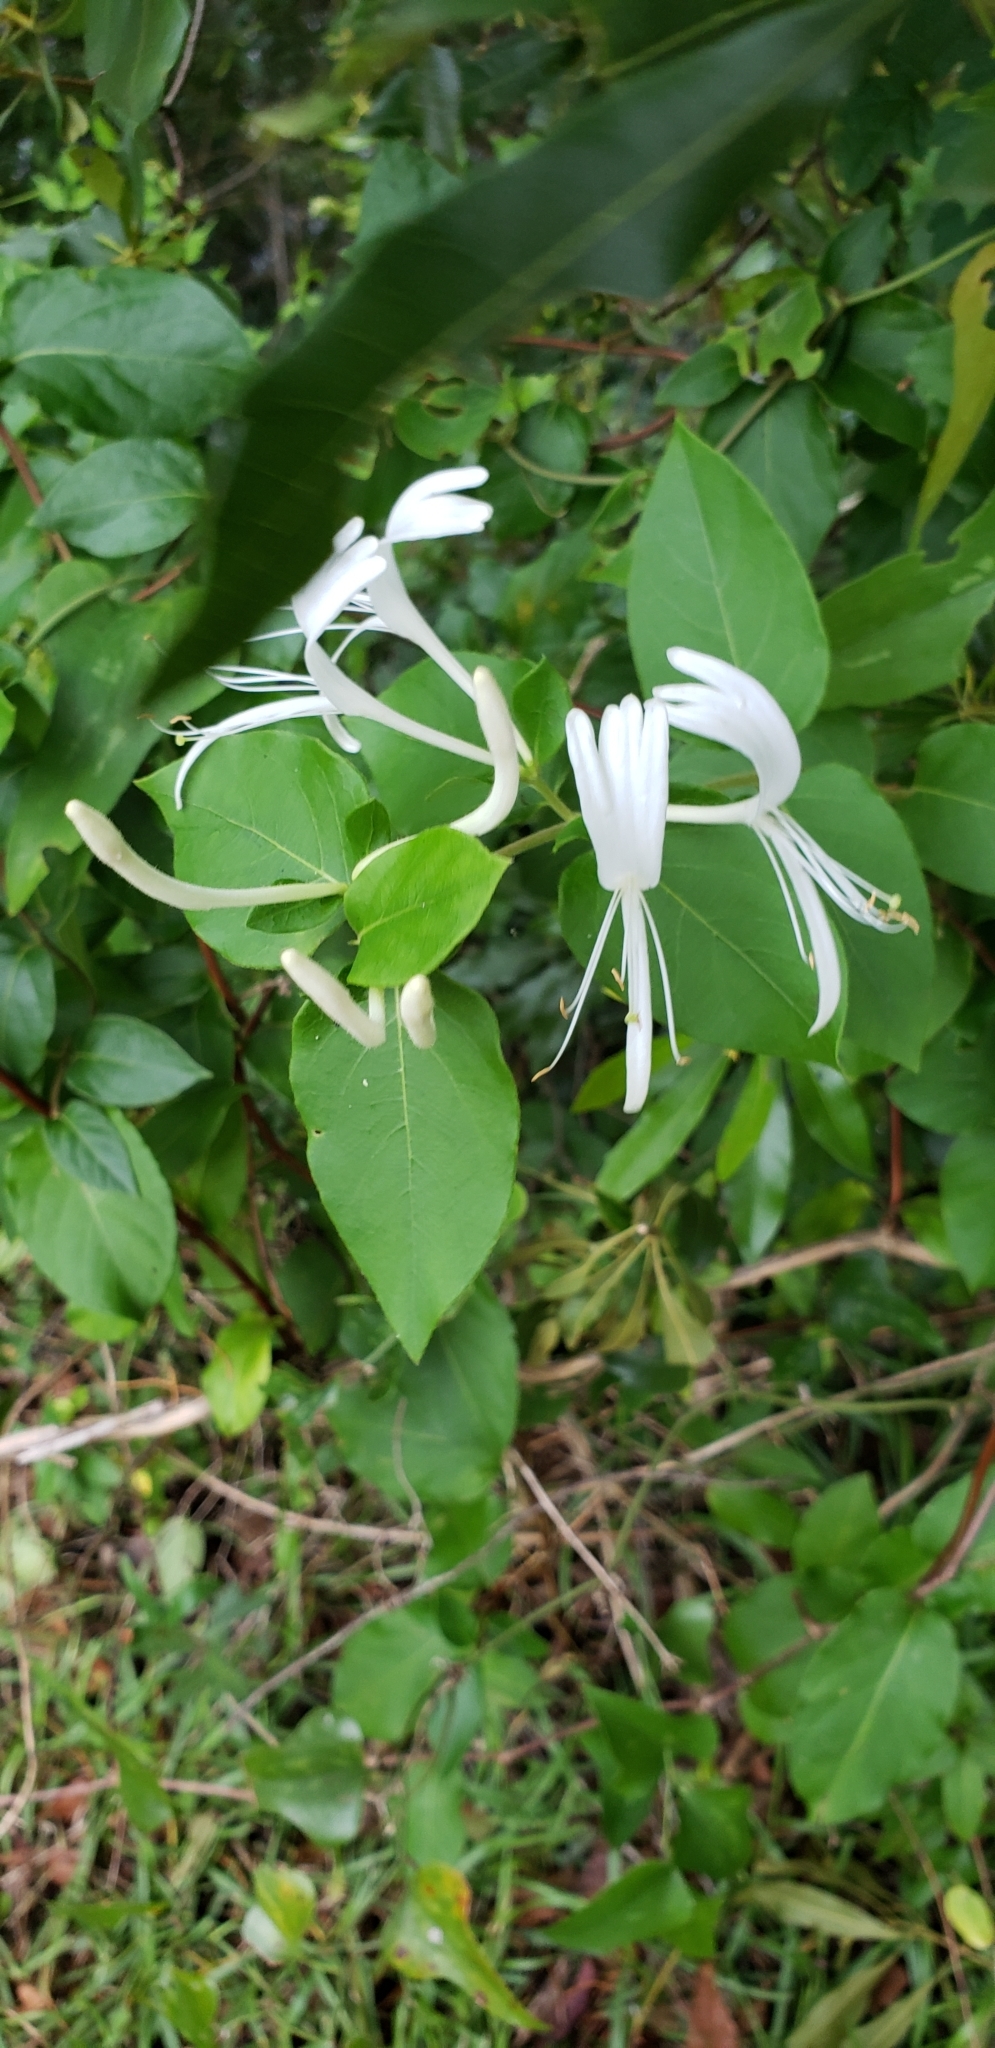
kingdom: Plantae
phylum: Tracheophyta
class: Magnoliopsida
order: Dipsacales
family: Caprifoliaceae
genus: Lonicera
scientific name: Lonicera japonica
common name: Japanese honeysuckle
